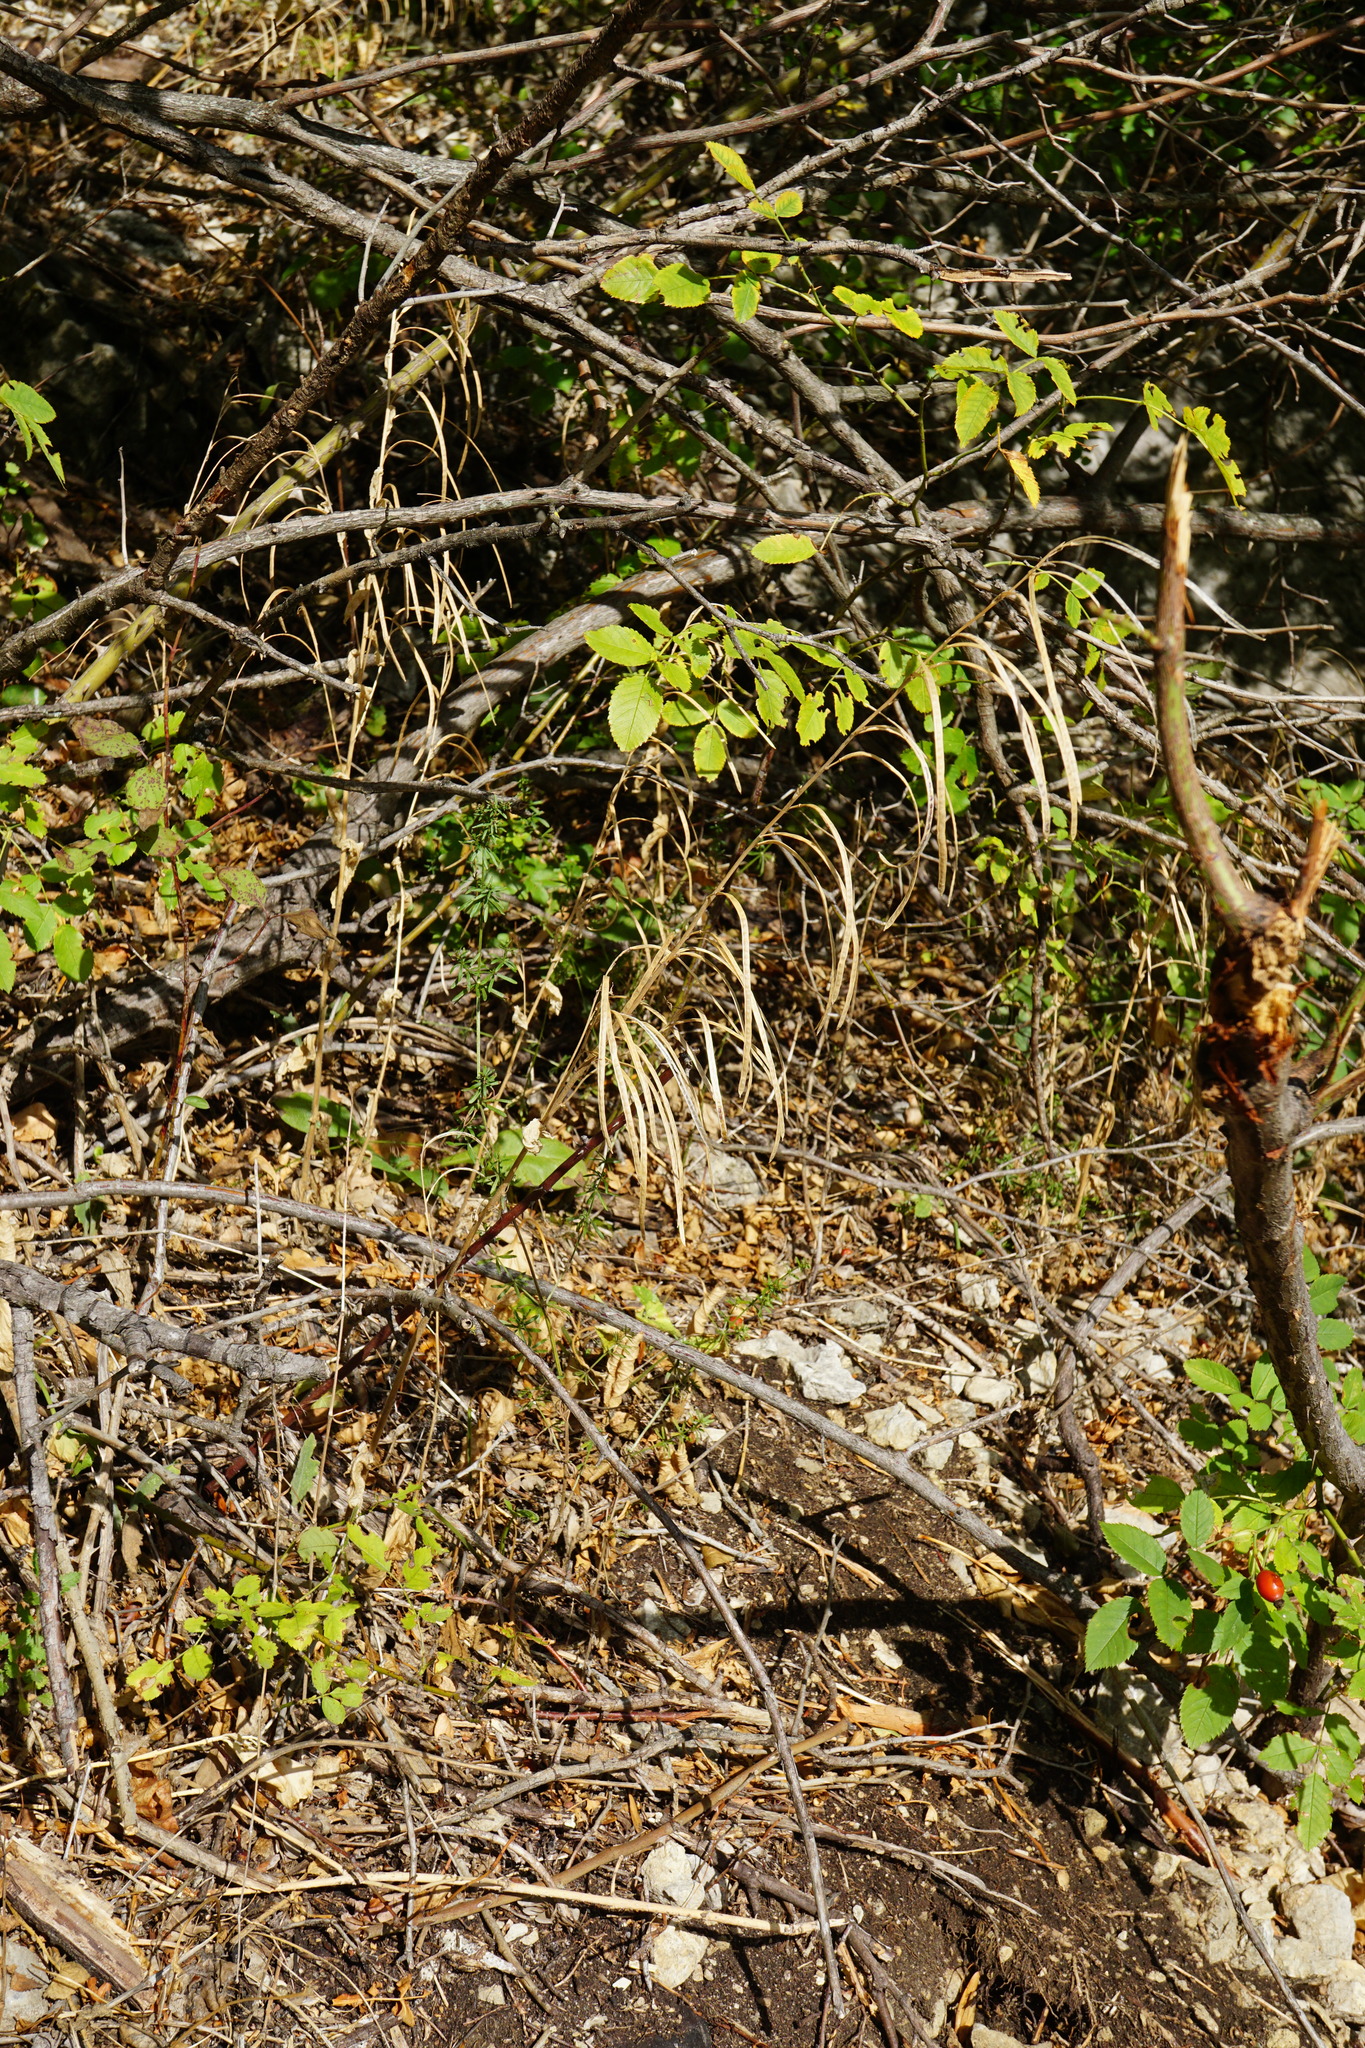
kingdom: Plantae
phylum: Tracheophyta
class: Magnoliopsida
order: Brassicales
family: Brassicaceae
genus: Pseudoturritis
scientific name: Pseudoturritis turrita
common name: Tower cress
